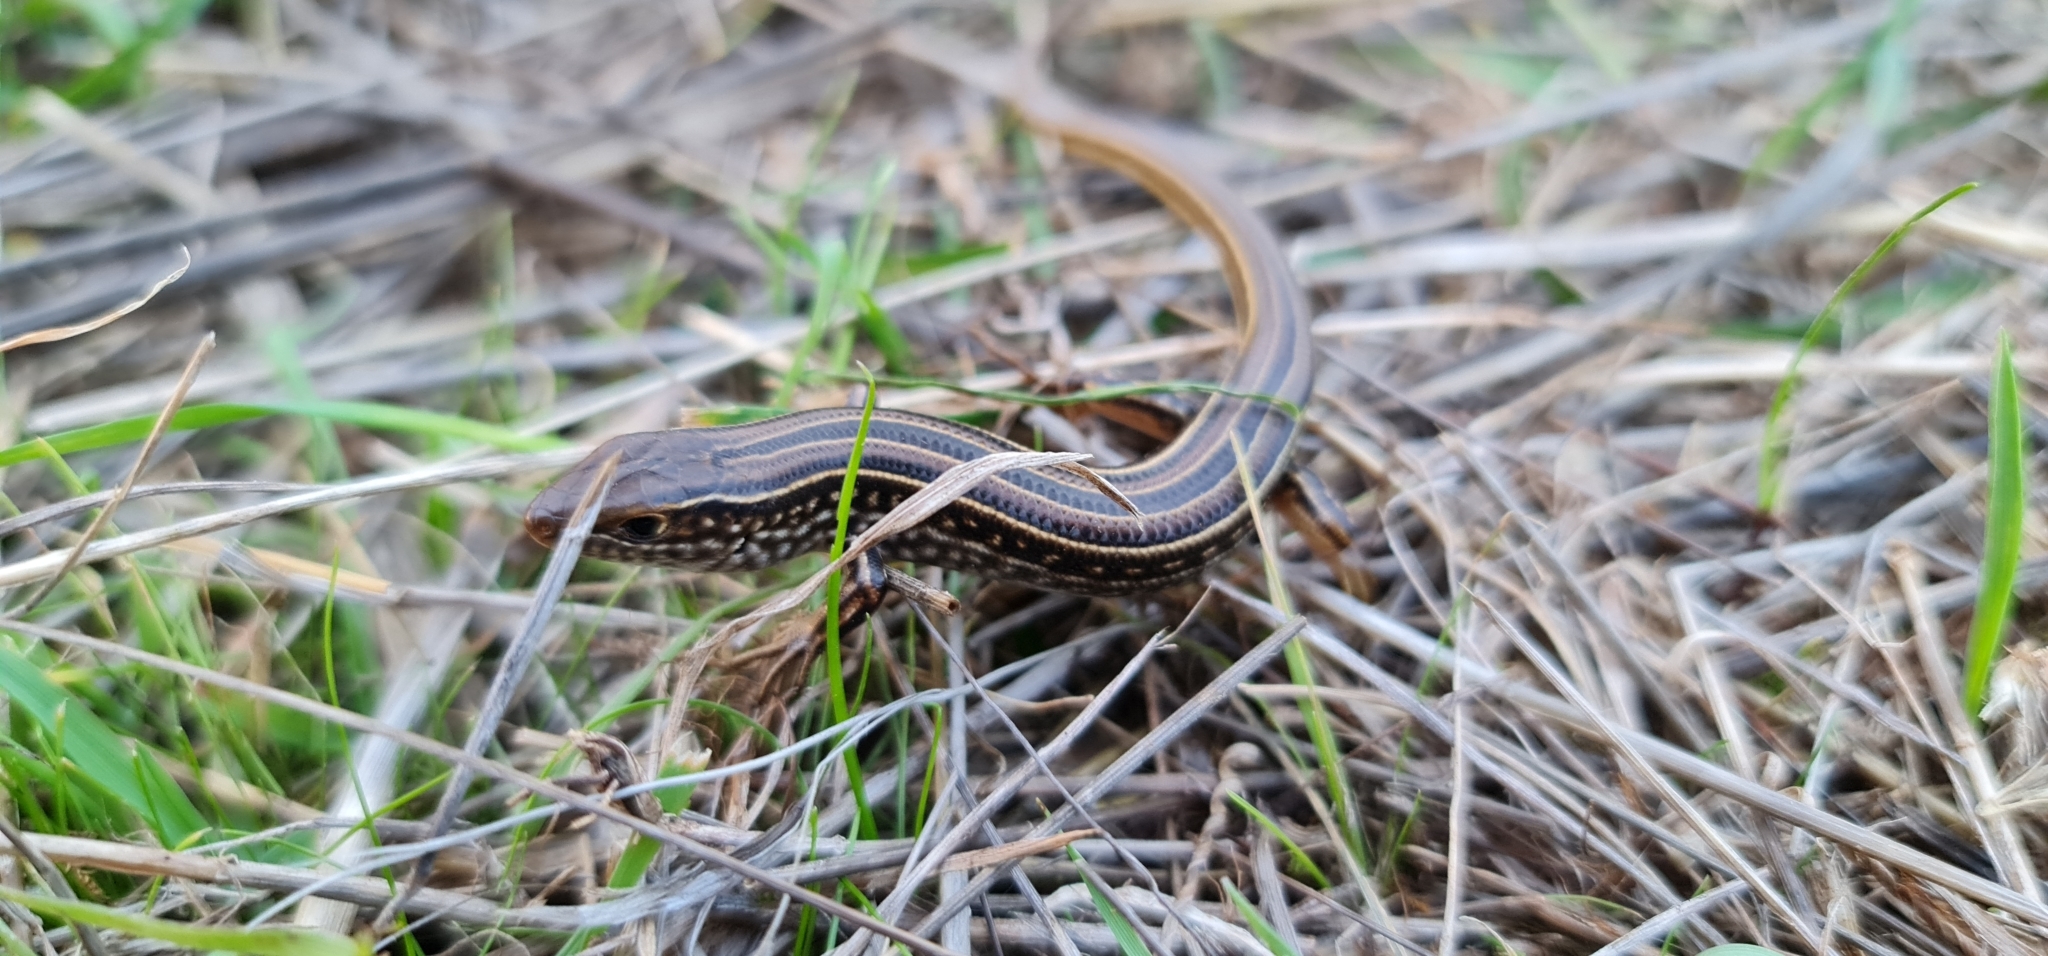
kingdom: Animalia
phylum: Chordata
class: Squamata
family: Scincidae
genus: Ctenotus
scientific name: Ctenotus spaldingi
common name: Straight-browed ctenotus
